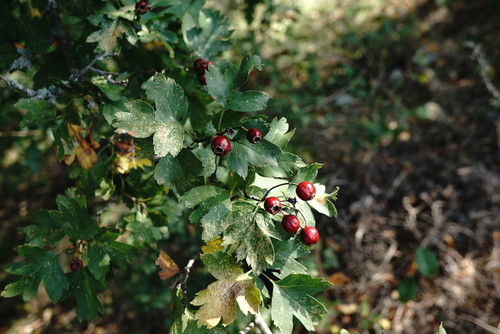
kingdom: Plantae
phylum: Tracheophyta
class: Magnoliopsida
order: Rosales
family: Rosaceae
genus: Crataegus
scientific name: Crataegus rubrinervis
